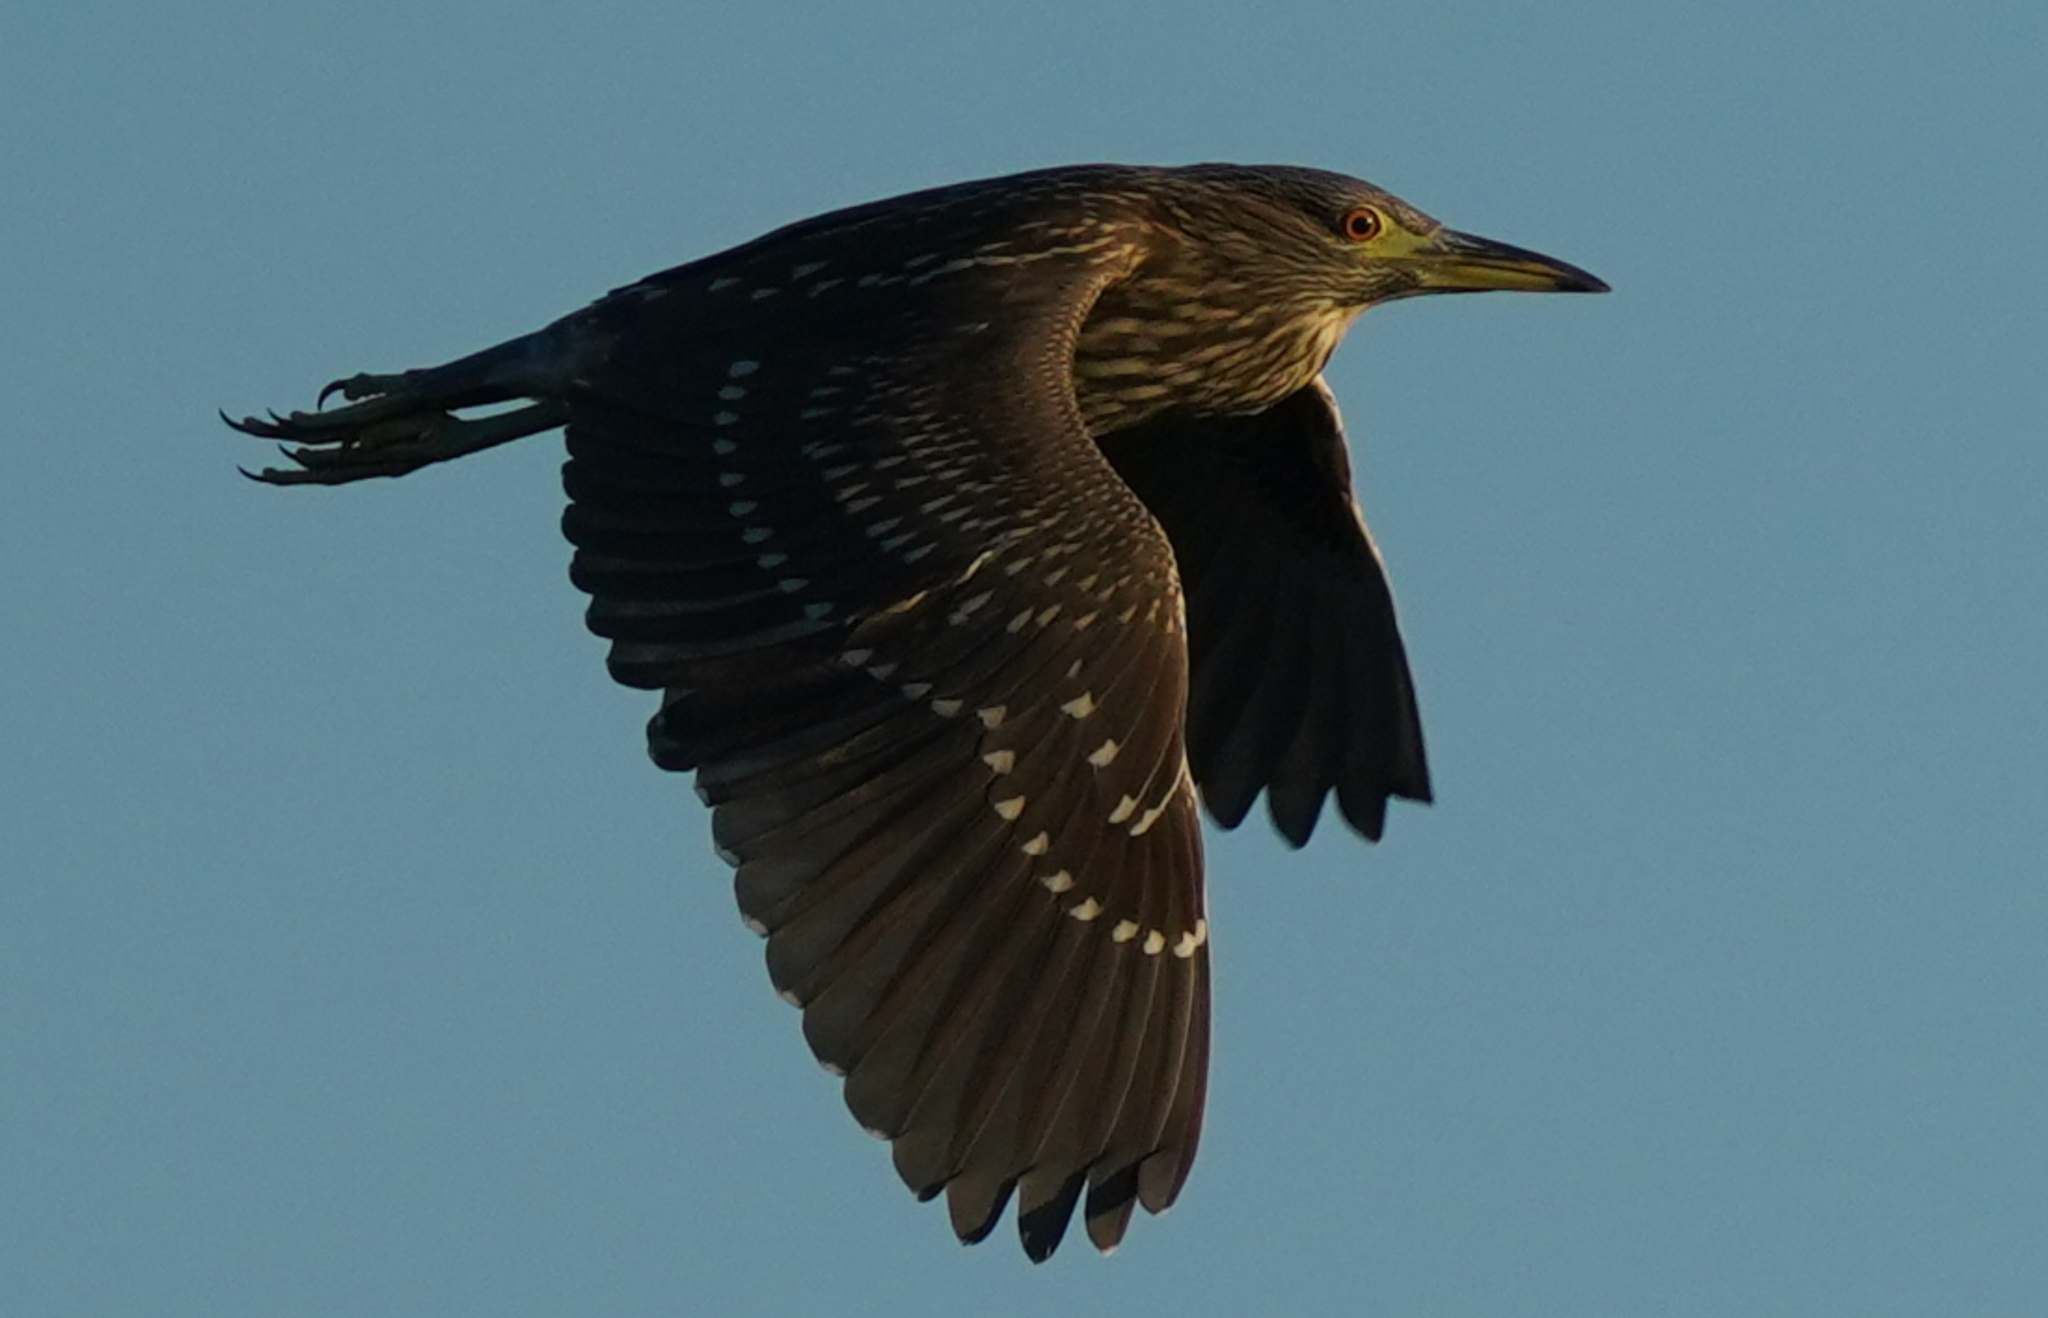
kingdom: Animalia
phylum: Chordata
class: Aves
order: Pelecaniformes
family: Ardeidae
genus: Nycticorax
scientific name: Nycticorax nycticorax
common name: Black-crowned night heron
